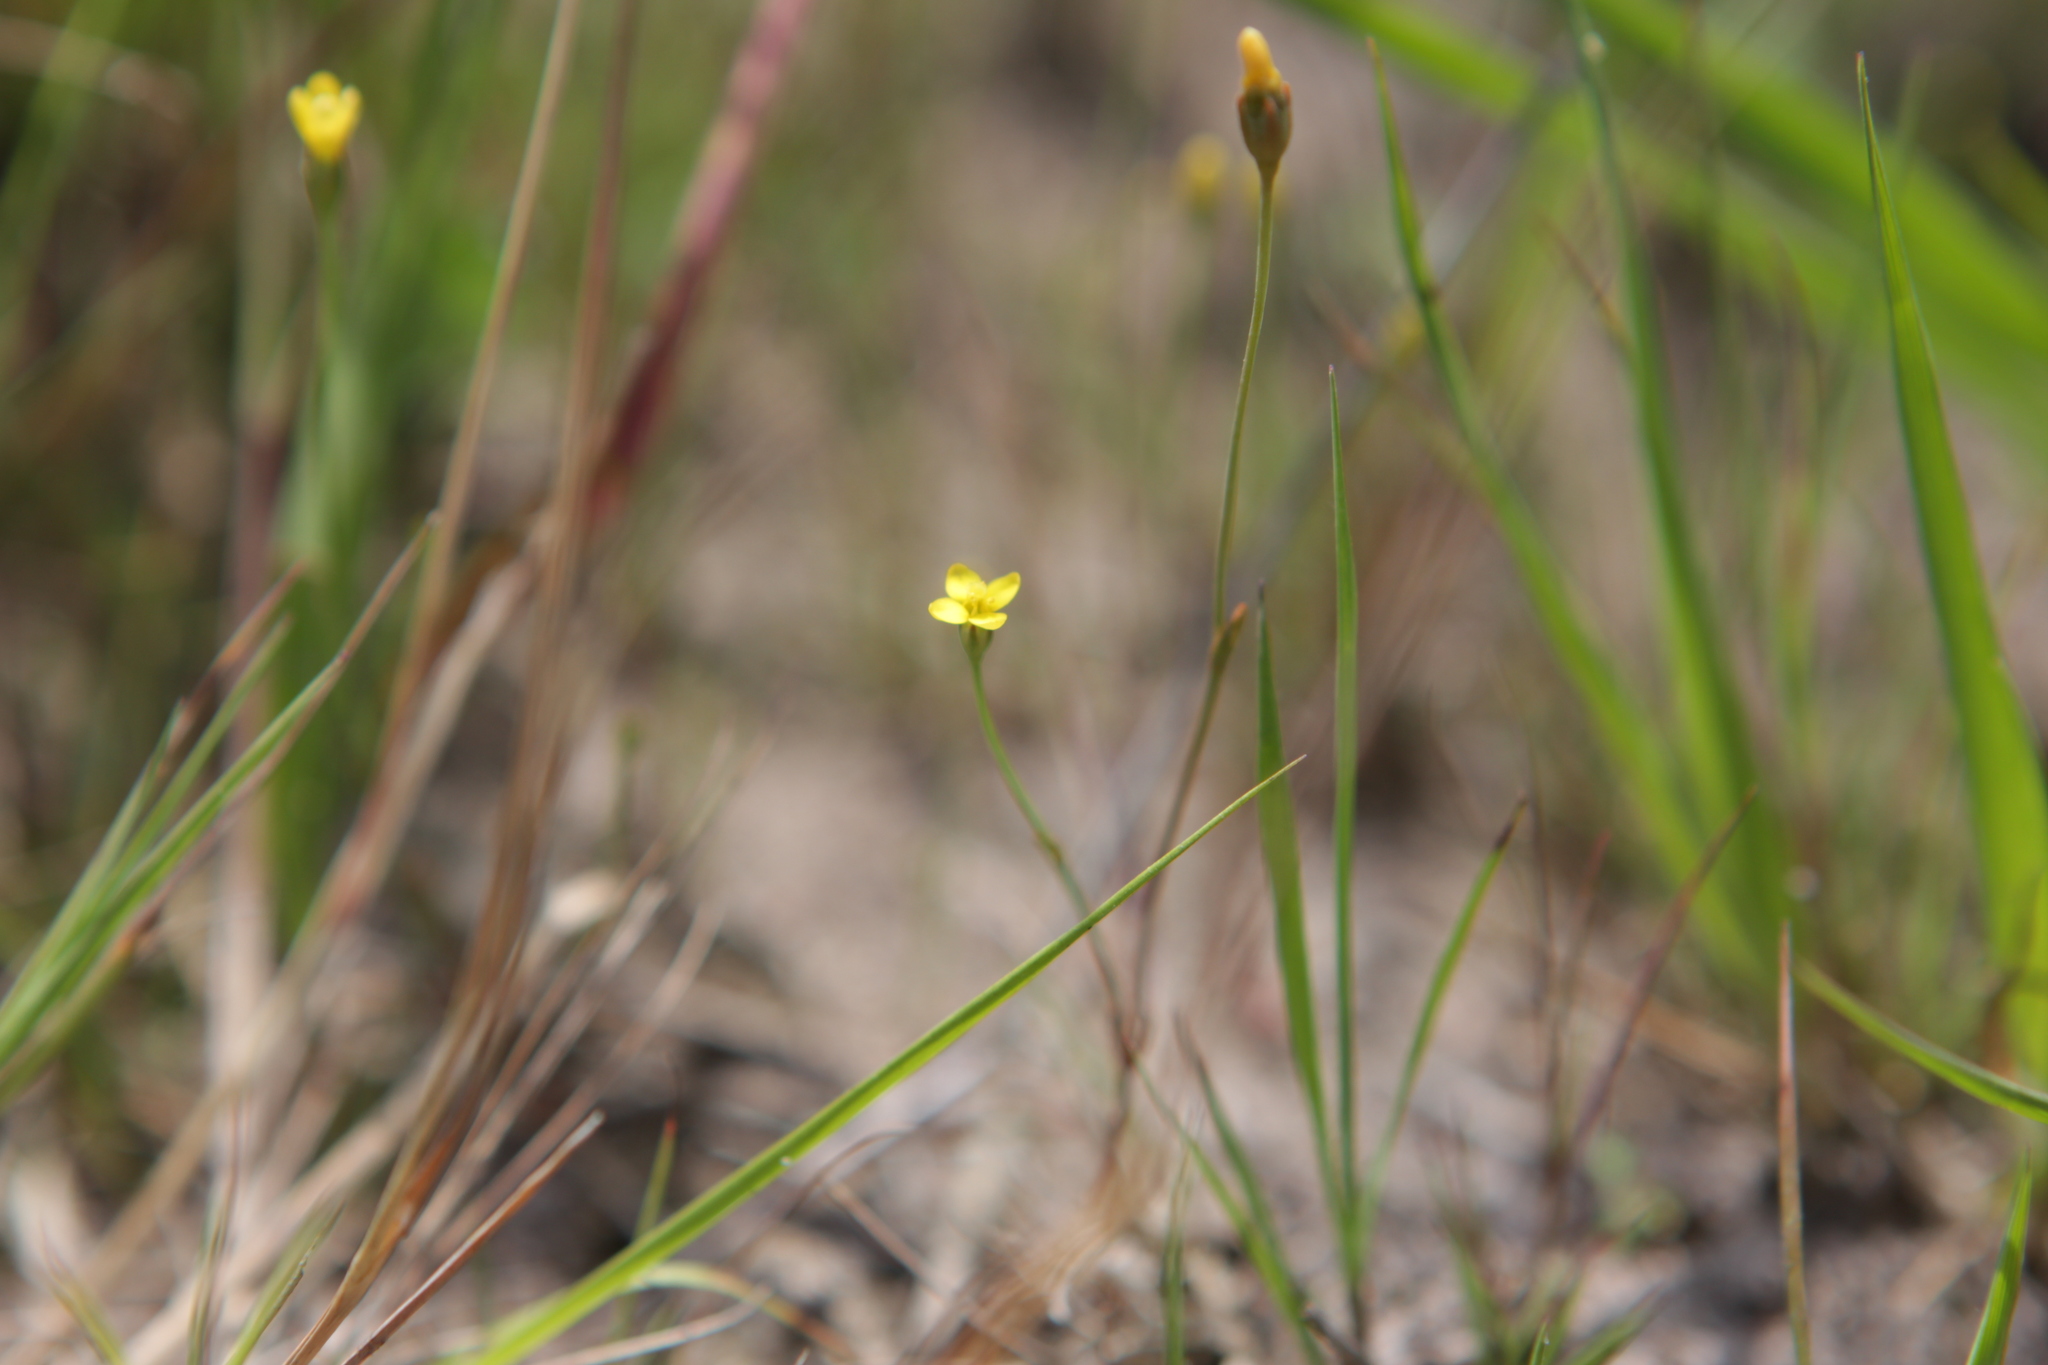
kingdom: Plantae
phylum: Tracheophyta
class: Magnoliopsida
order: Gentianales
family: Gentianaceae
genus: Cicendia
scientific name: Cicendia filiformis
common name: Yellow centaury
